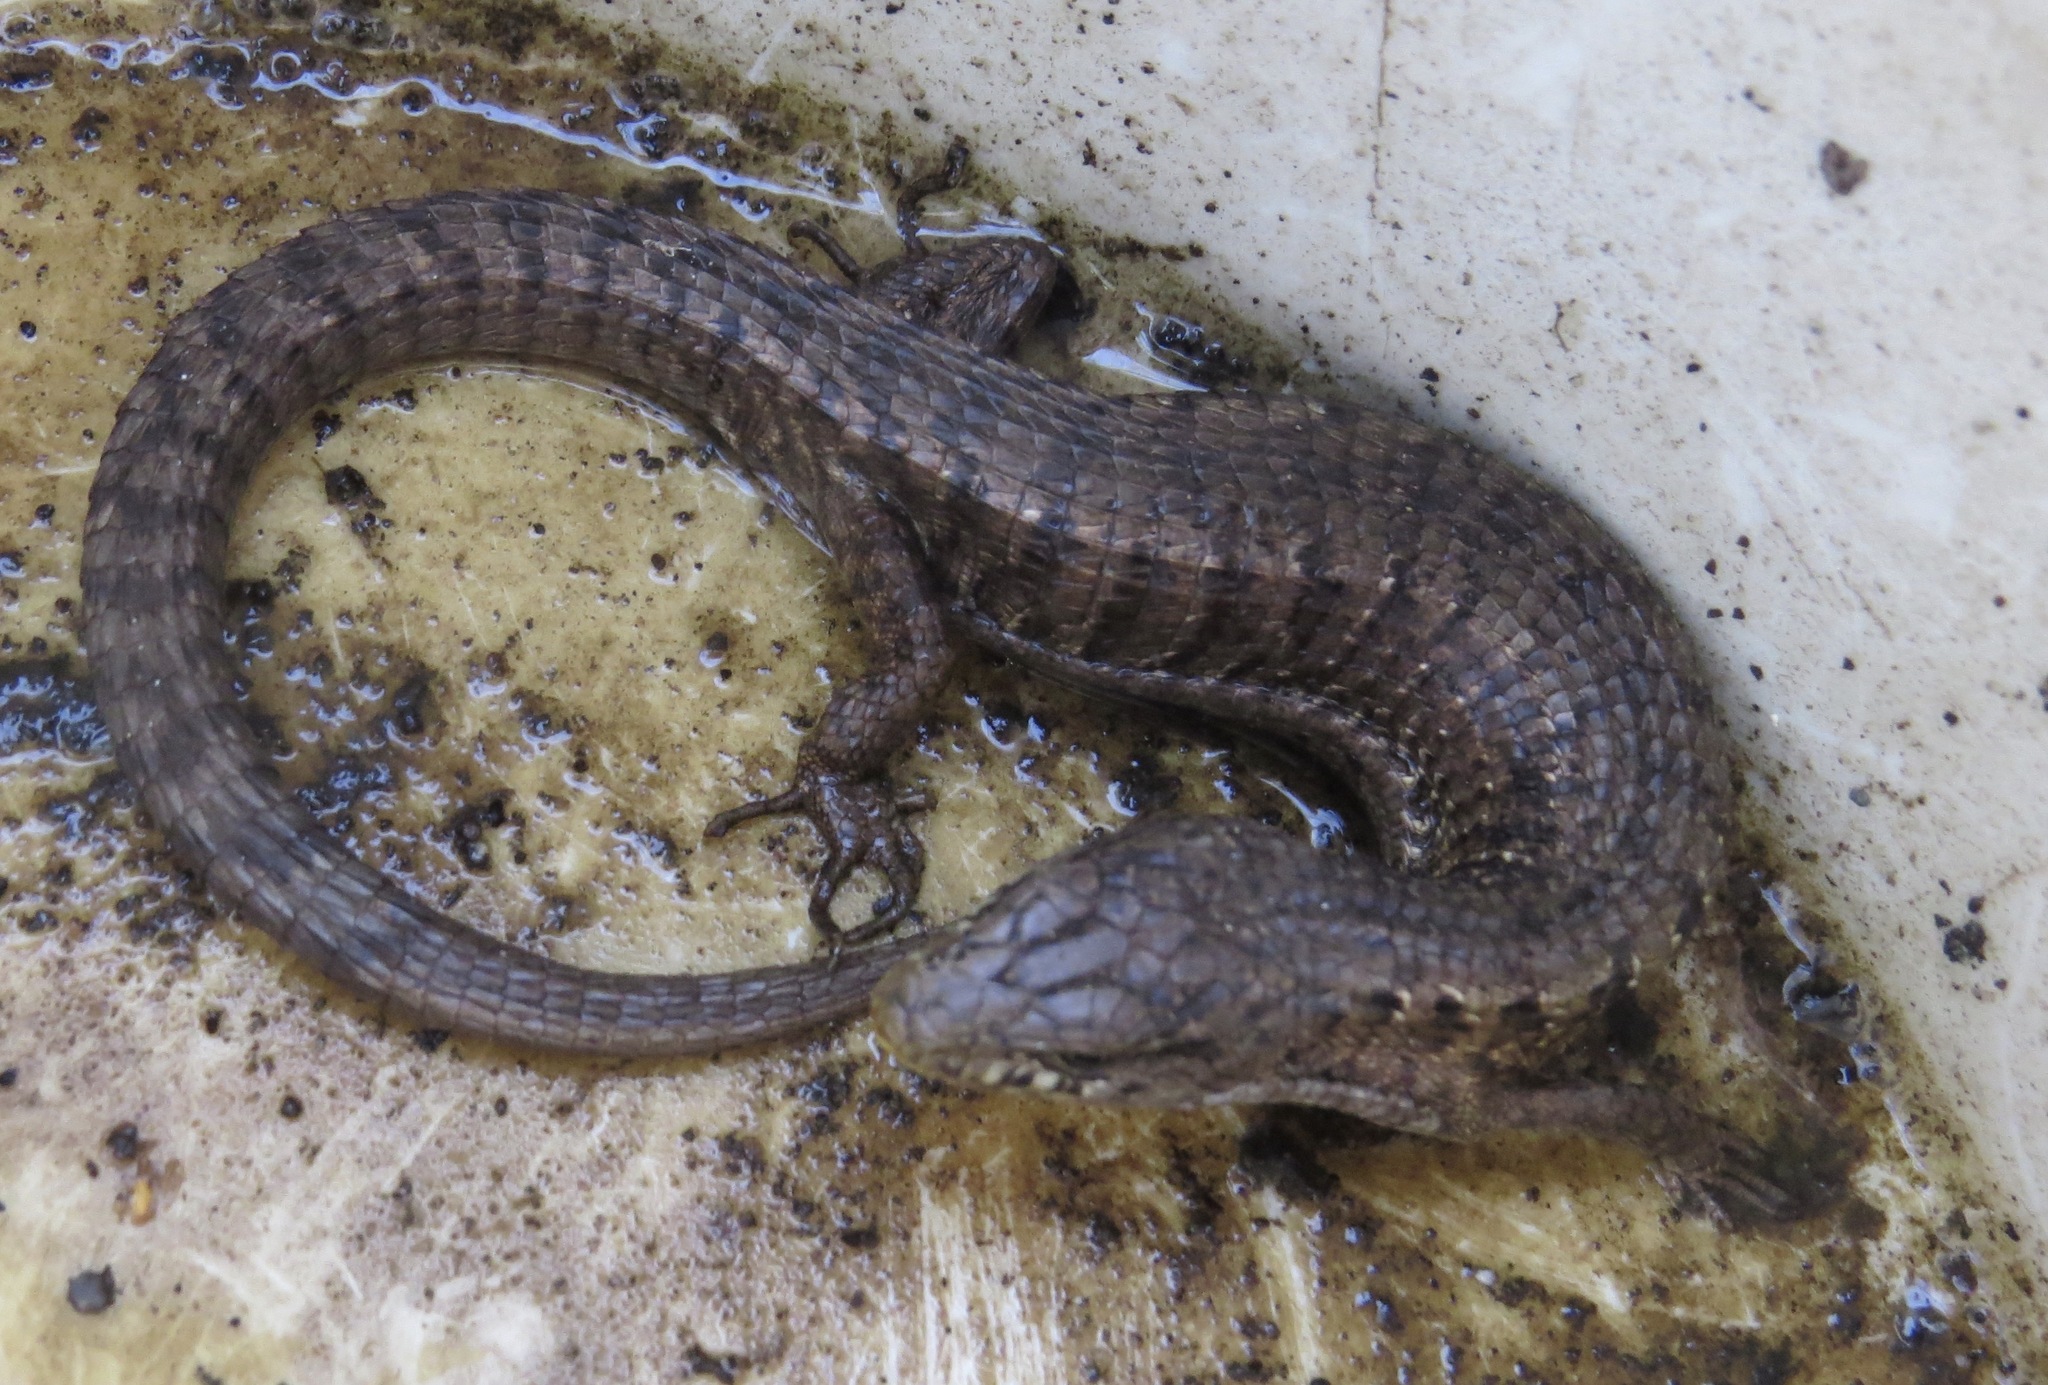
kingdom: Animalia
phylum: Chordata
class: Squamata
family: Anguidae
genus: Elgaria
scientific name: Elgaria coerulea
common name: Northern alligator lizard
